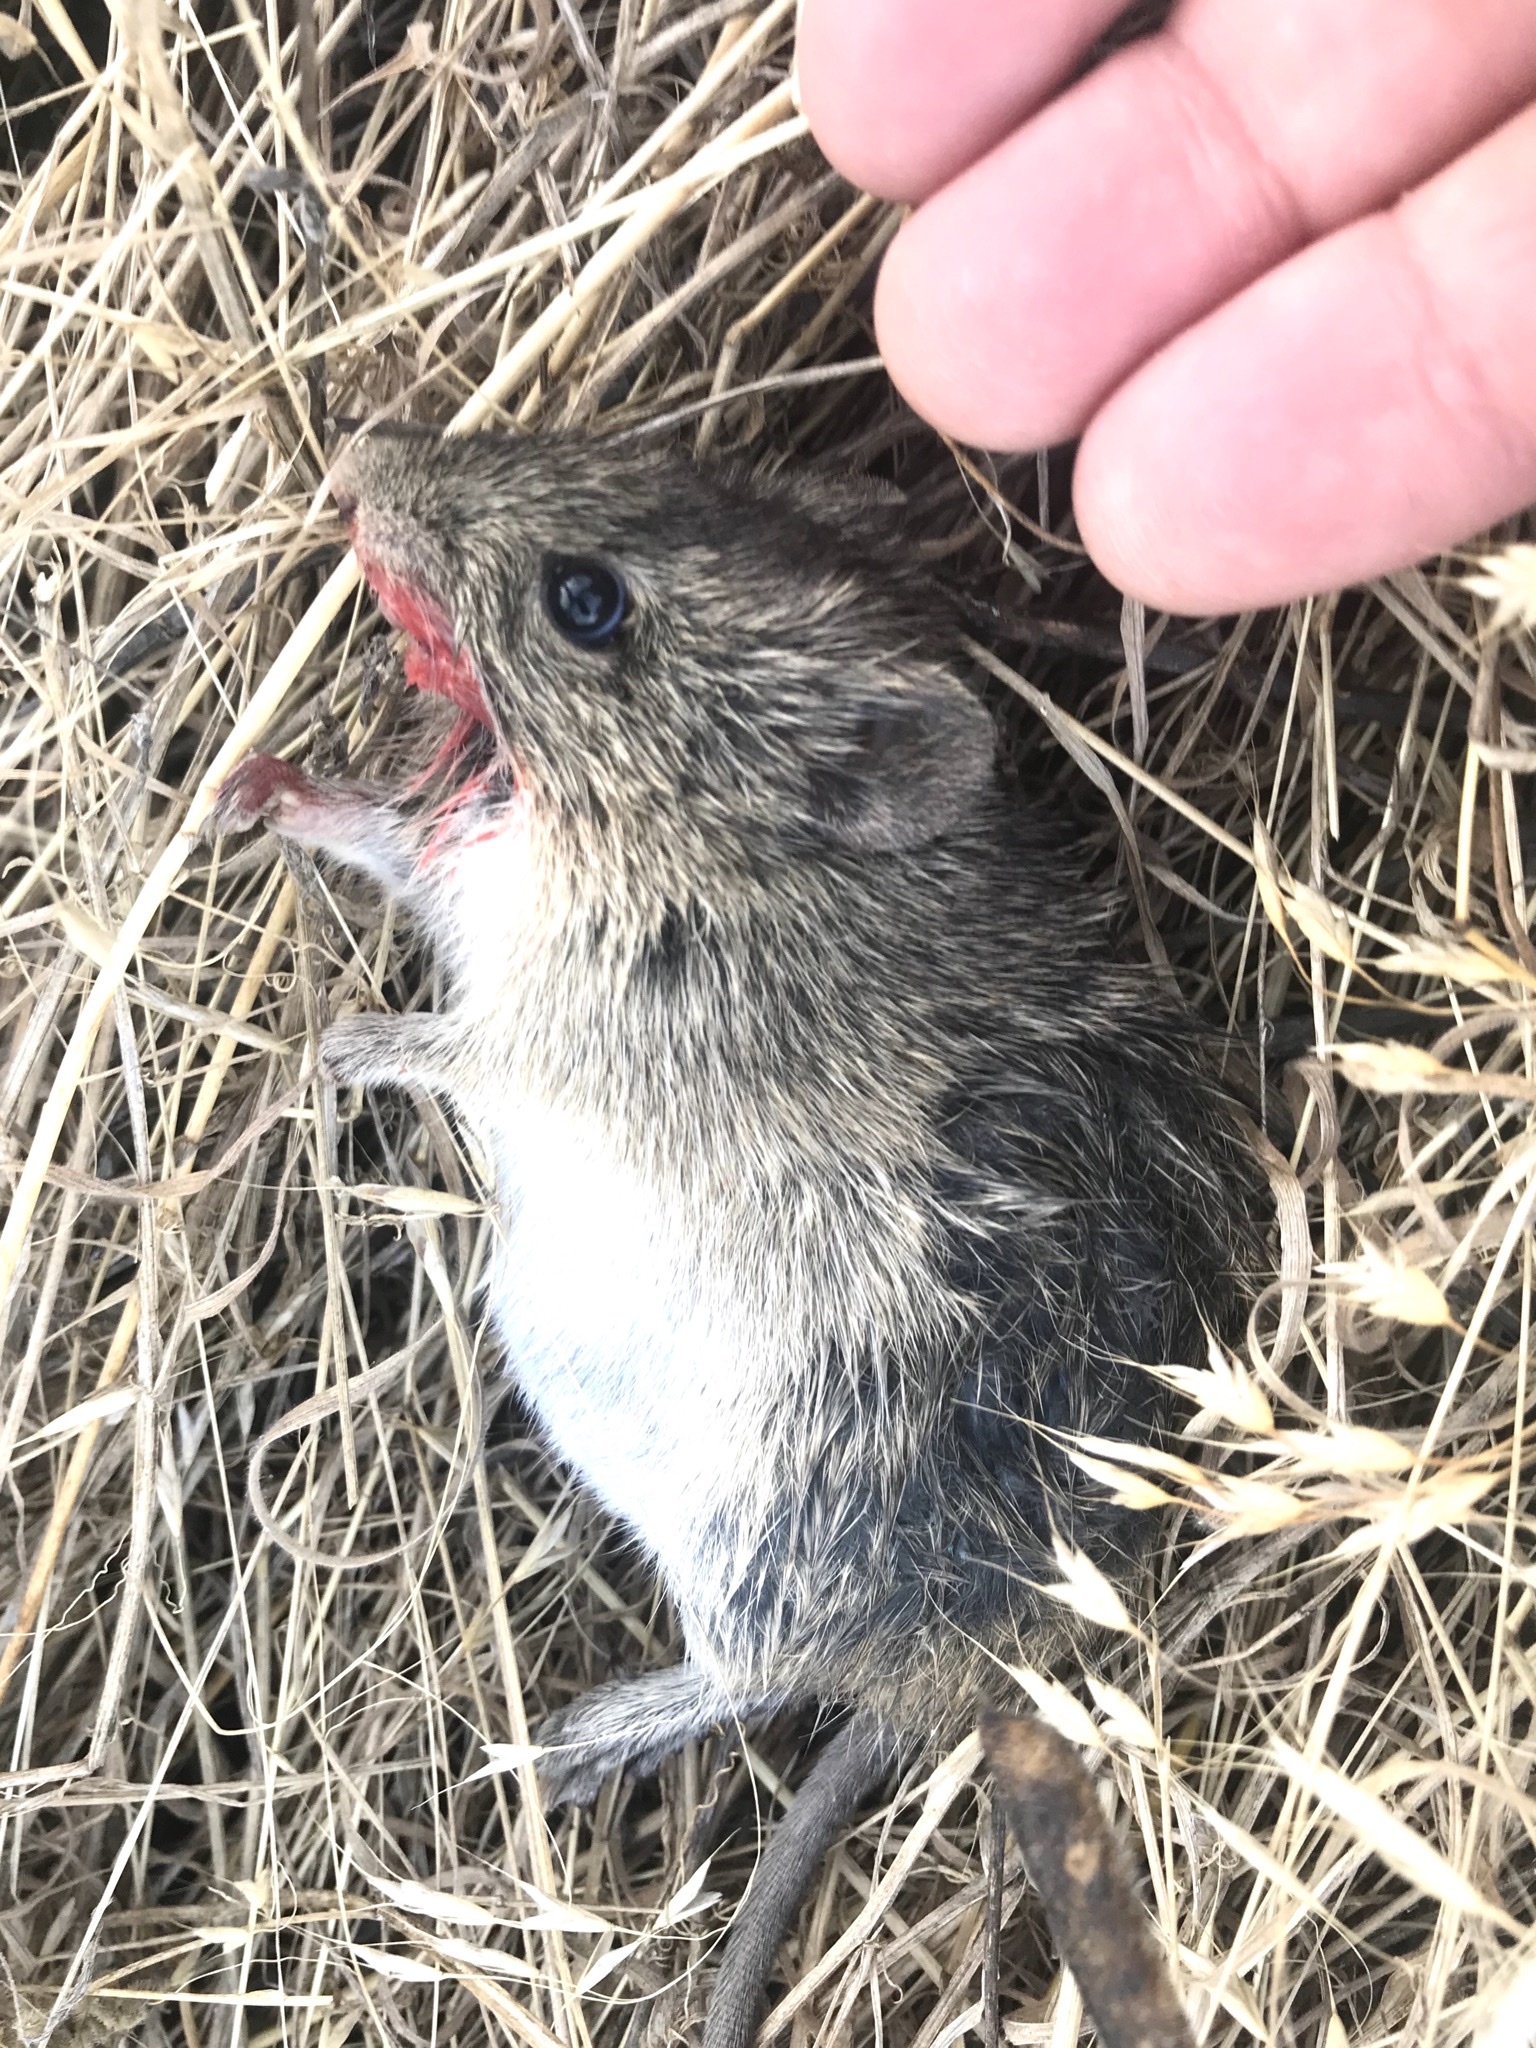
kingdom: Animalia
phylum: Chordata
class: Mammalia
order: Rodentia
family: Cricetidae
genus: Sigmodon
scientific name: Sigmodon hispidus
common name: Hispid cotton rat
